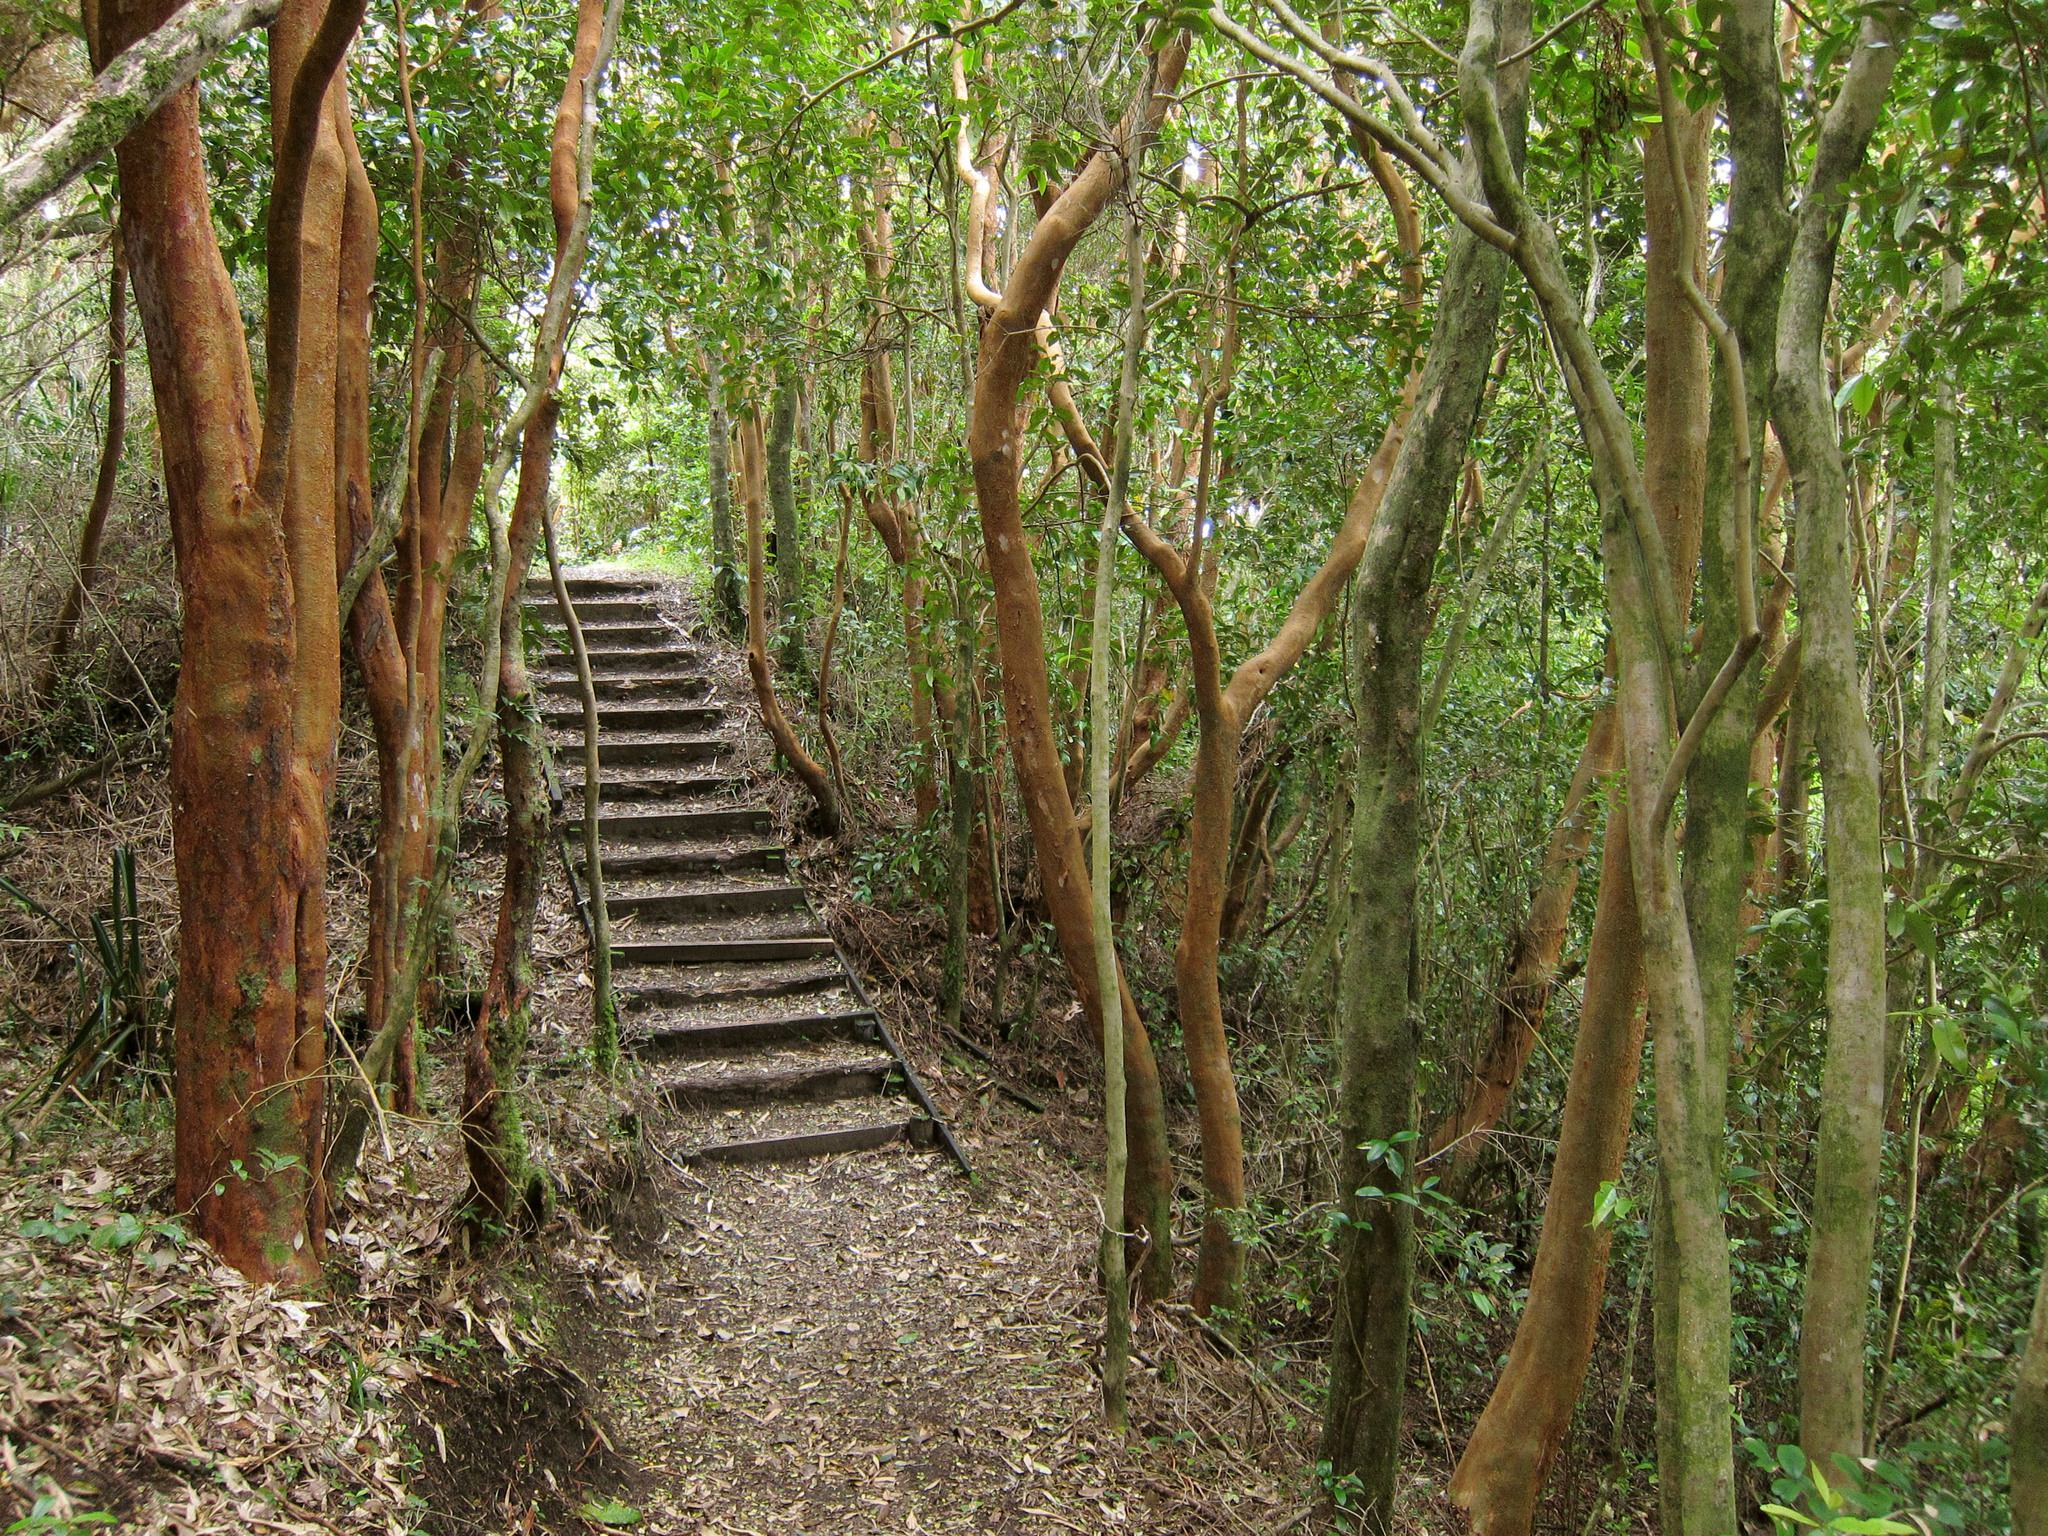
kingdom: Plantae
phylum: Tracheophyta
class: Magnoliopsida
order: Myrtales
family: Myrtaceae
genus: Luma
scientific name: Luma apiculata
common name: Chilean myrtle
